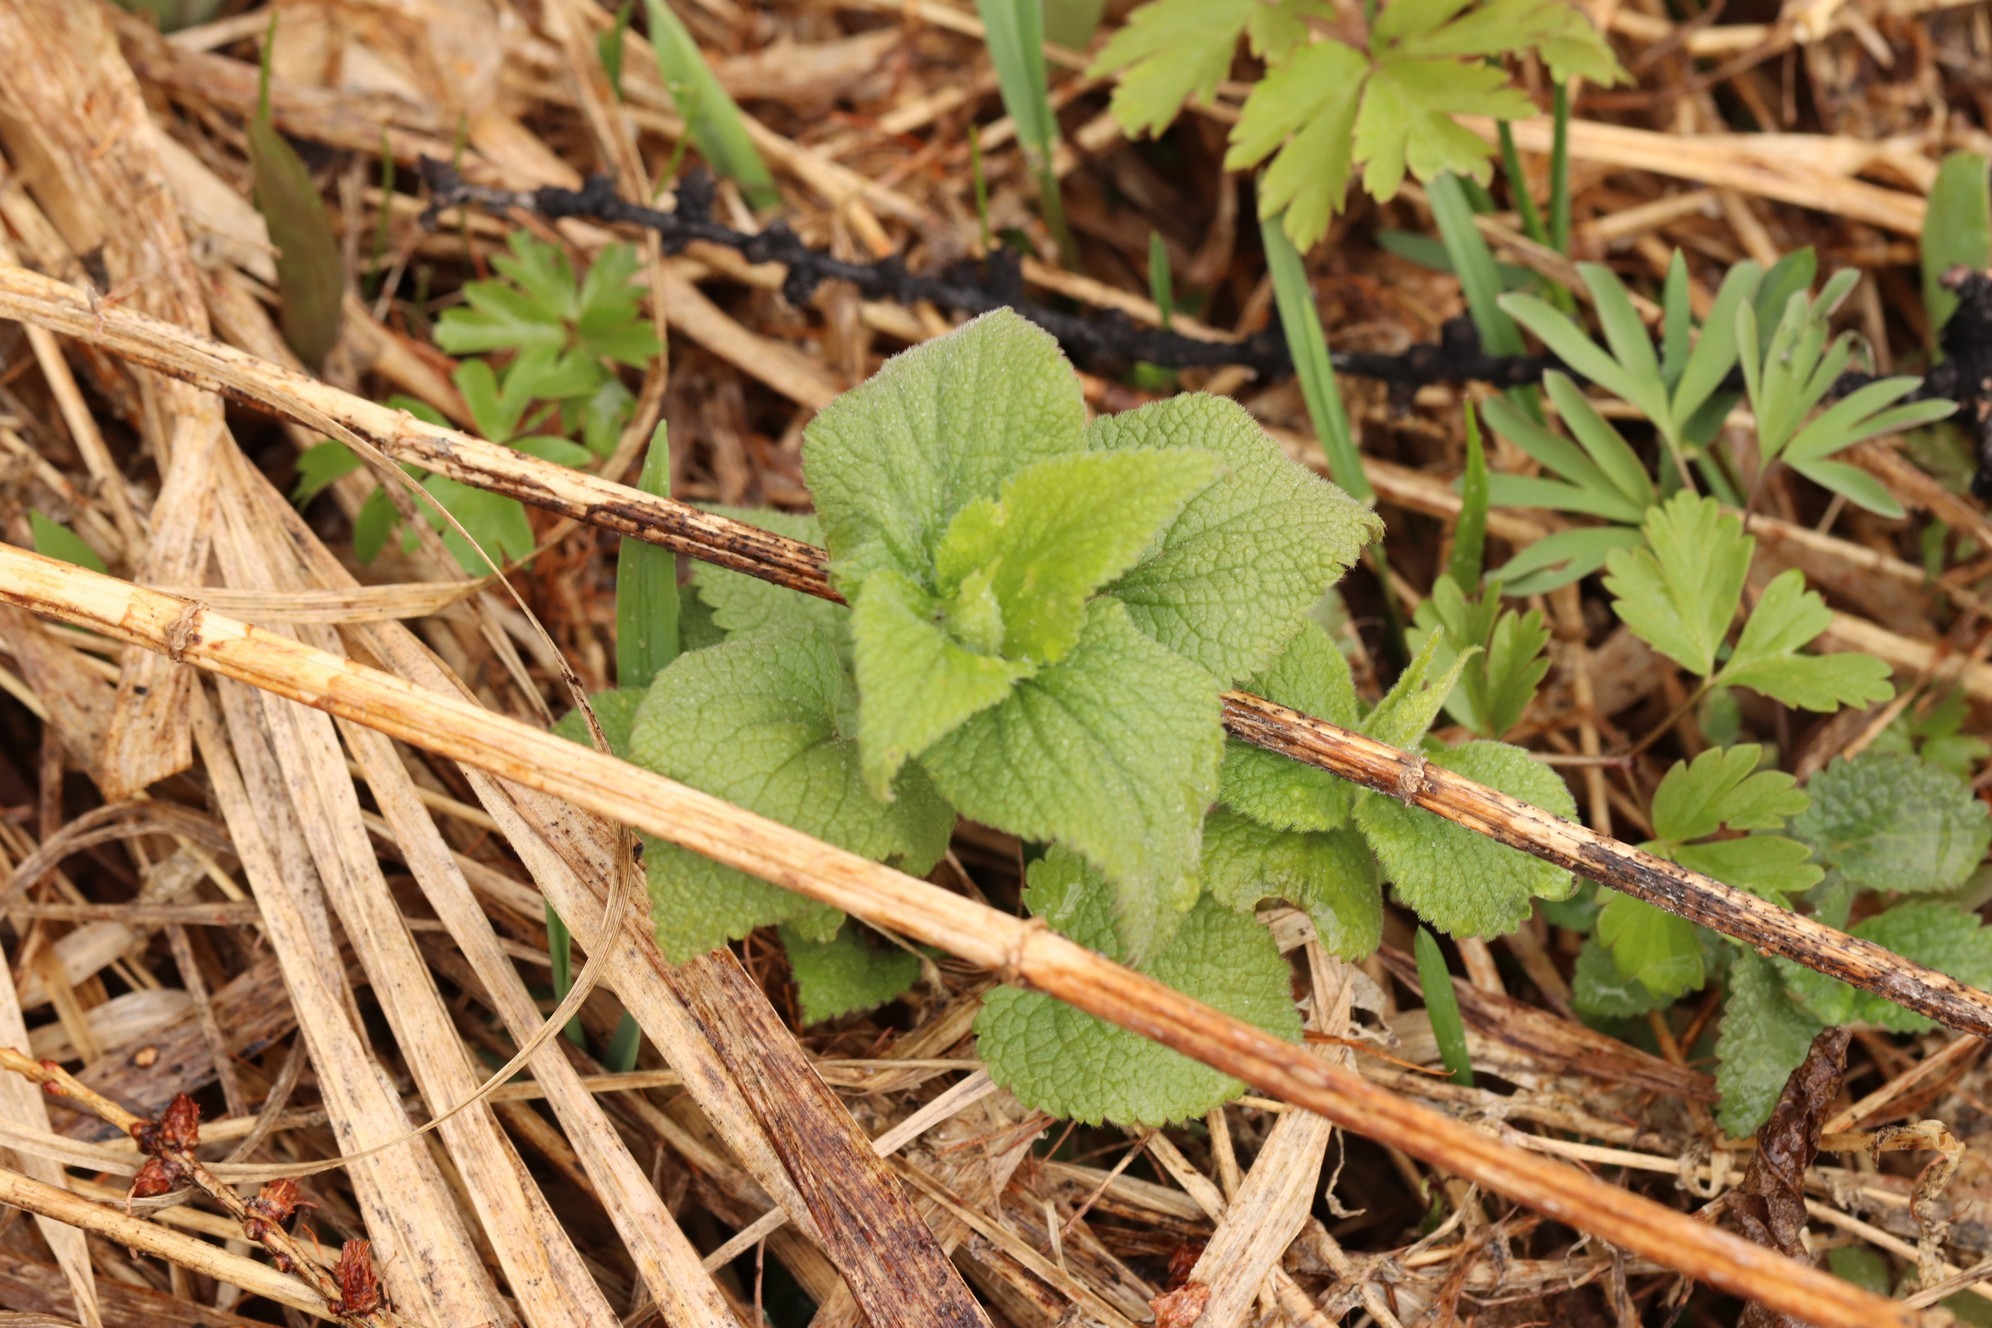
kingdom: Plantae
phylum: Tracheophyta
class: Magnoliopsida
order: Lamiales
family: Lamiaceae
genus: Lamium
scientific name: Lamium album
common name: White dead-nettle
